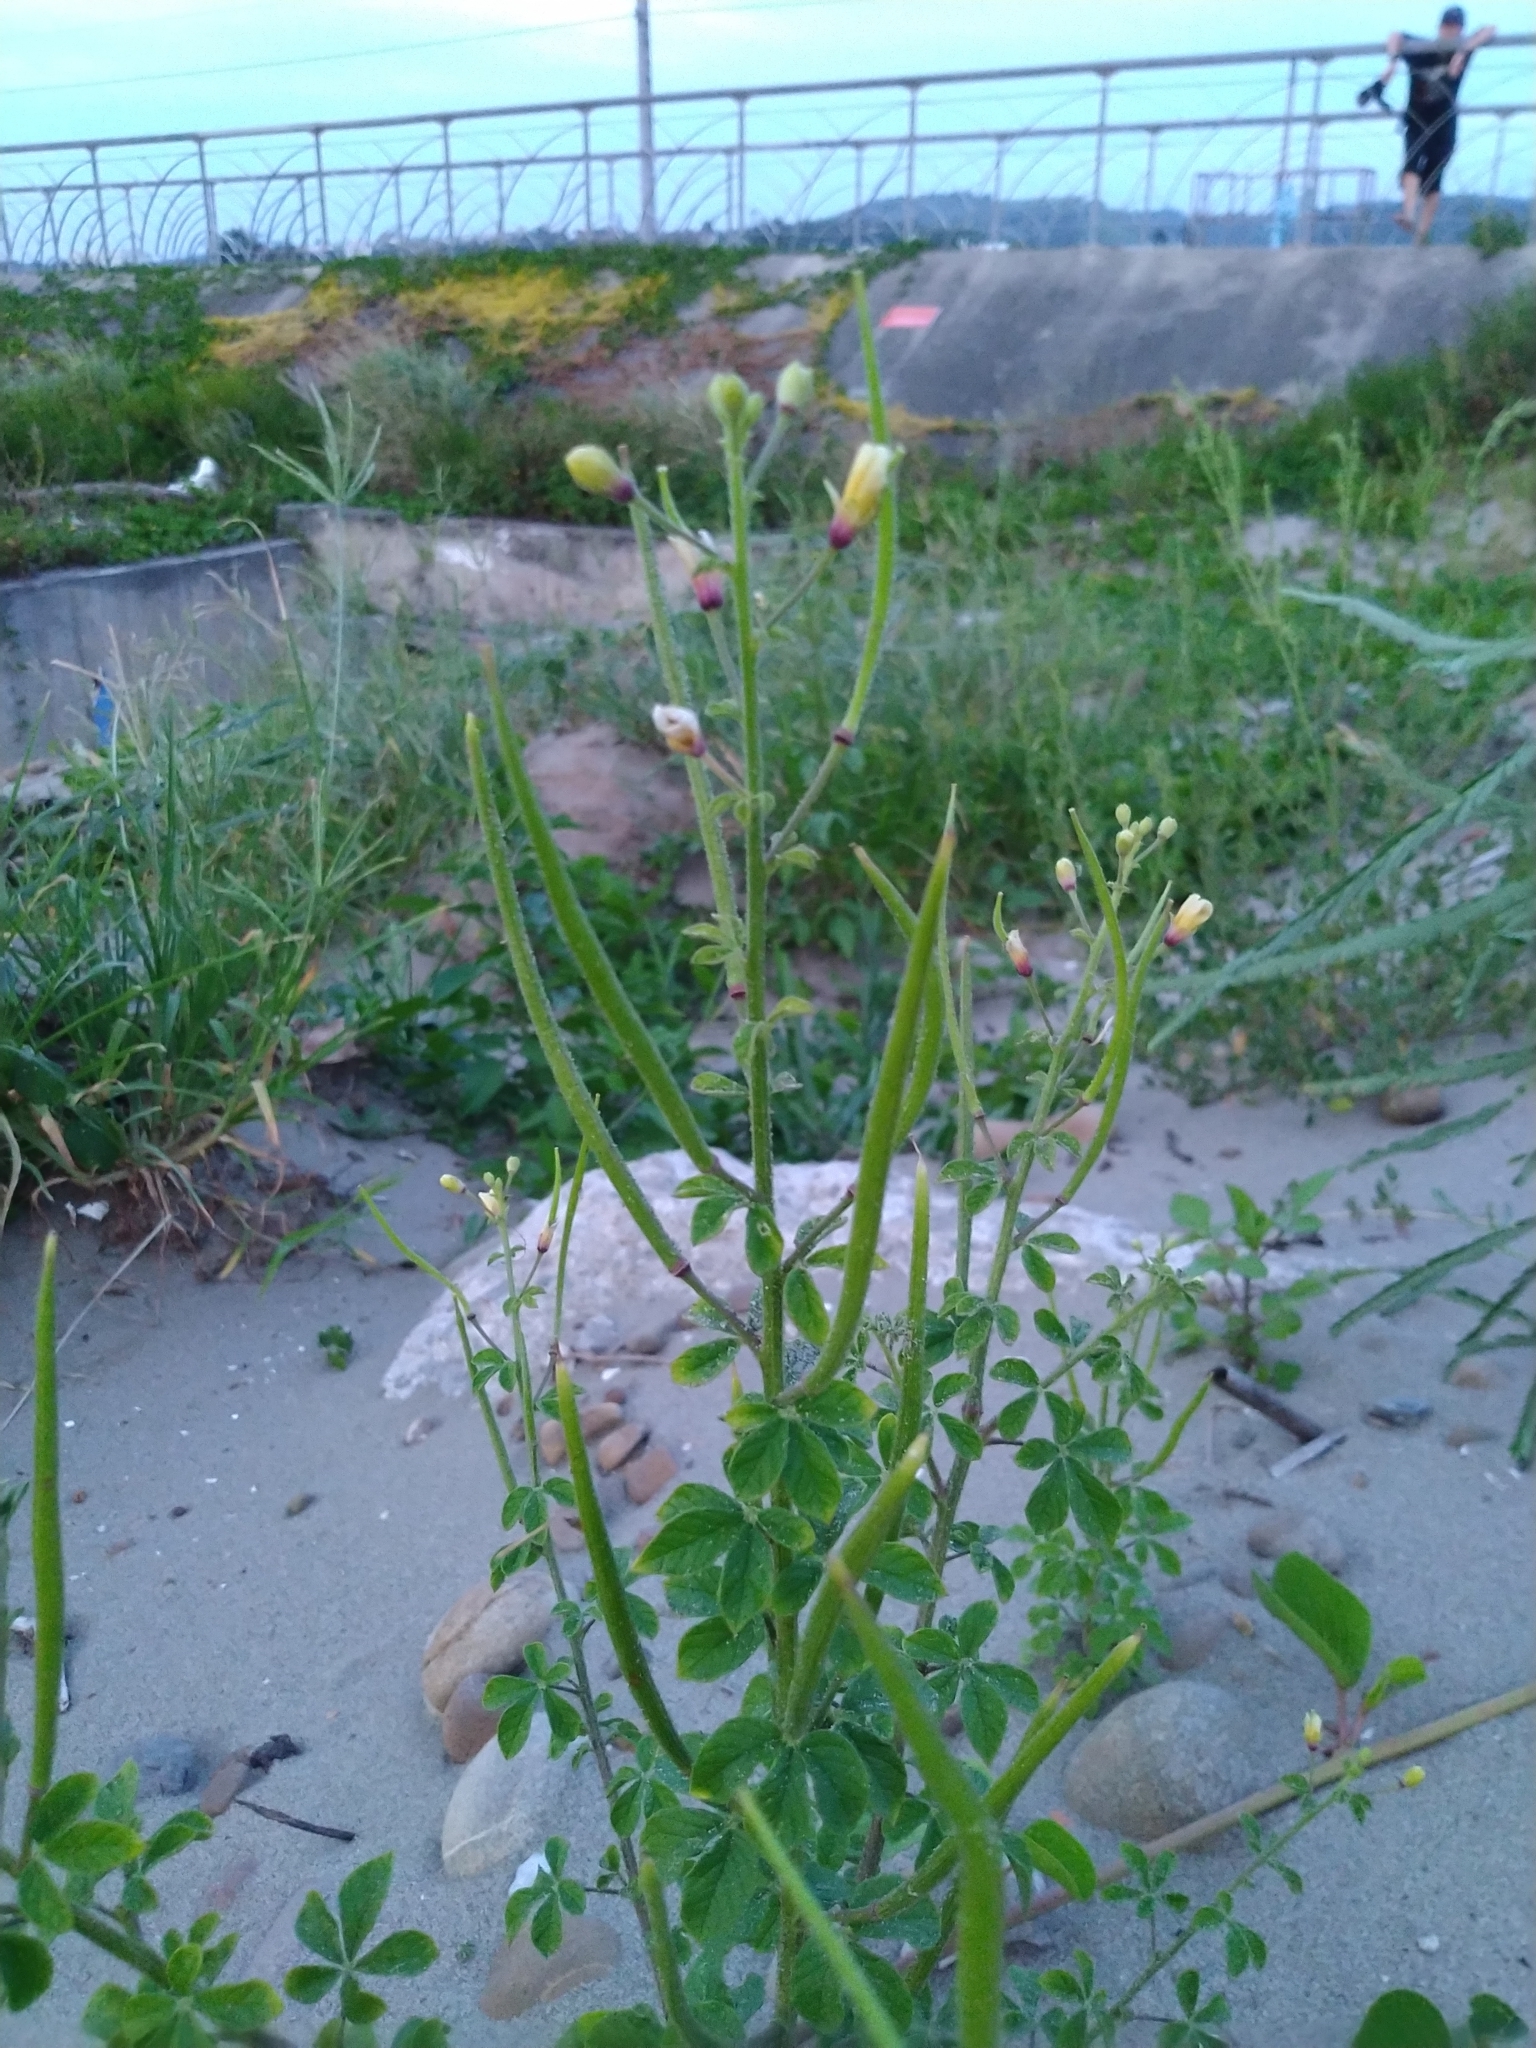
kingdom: Plantae
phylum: Tracheophyta
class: Magnoliopsida
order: Brassicales
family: Cleomaceae
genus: Arivela
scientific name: Arivela viscosa
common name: Asian spiderflower
